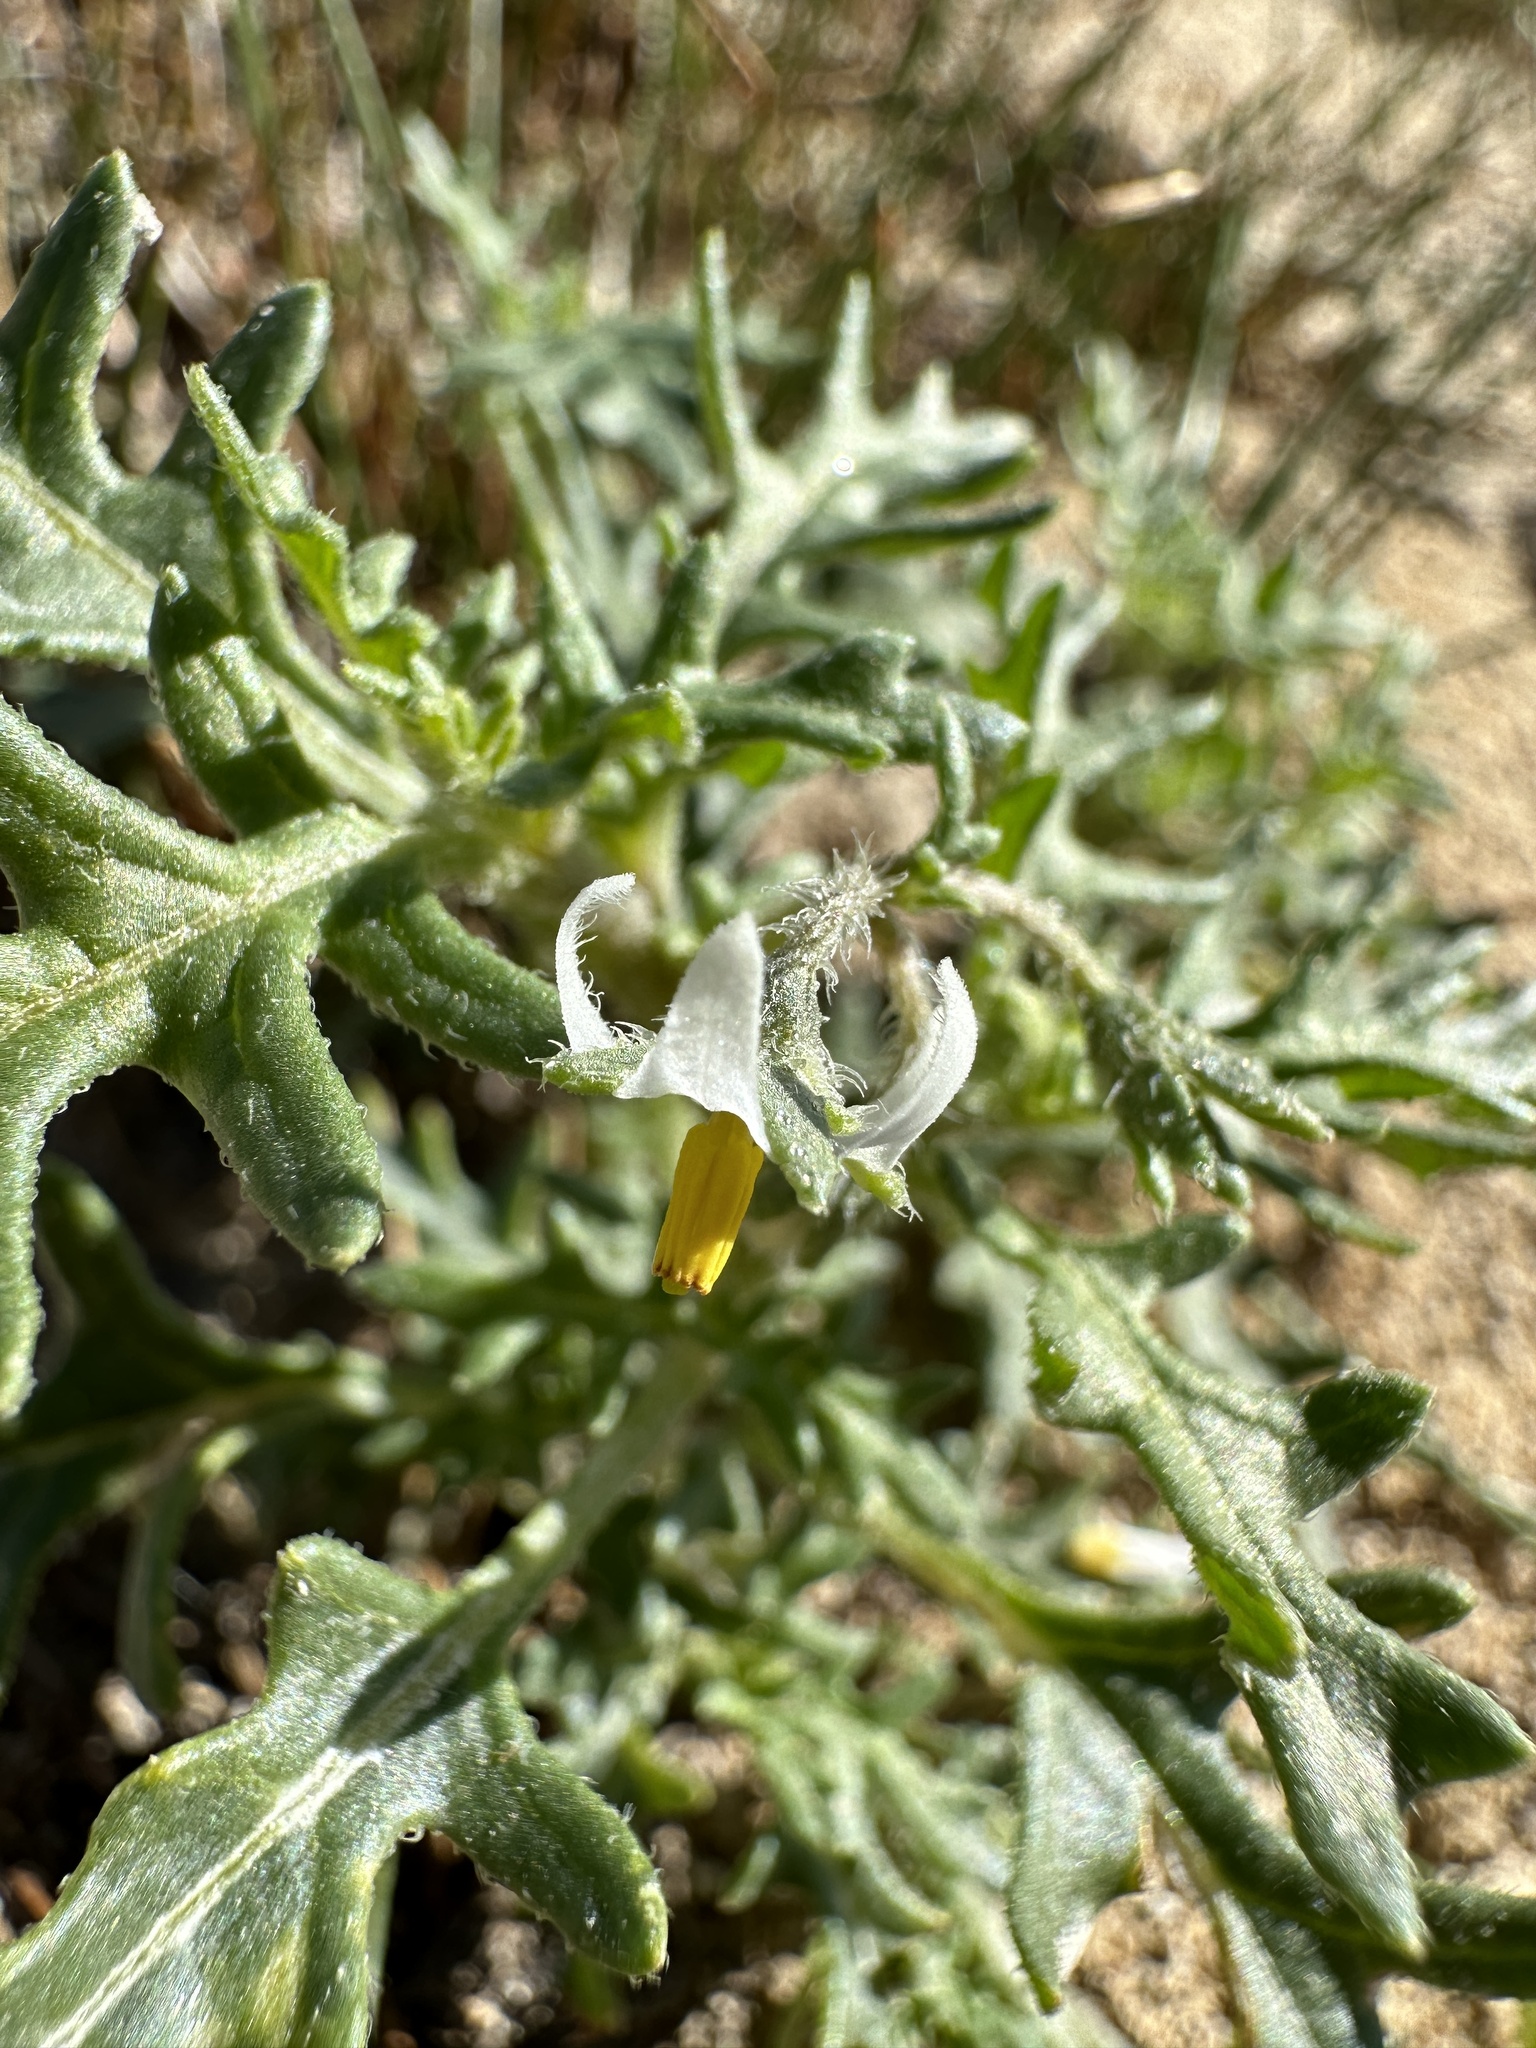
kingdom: Plantae
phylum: Tracheophyta
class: Magnoliopsida
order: Solanales
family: Solanaceae
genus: Solanum
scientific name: Solanum triflorum
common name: Small nightshade
